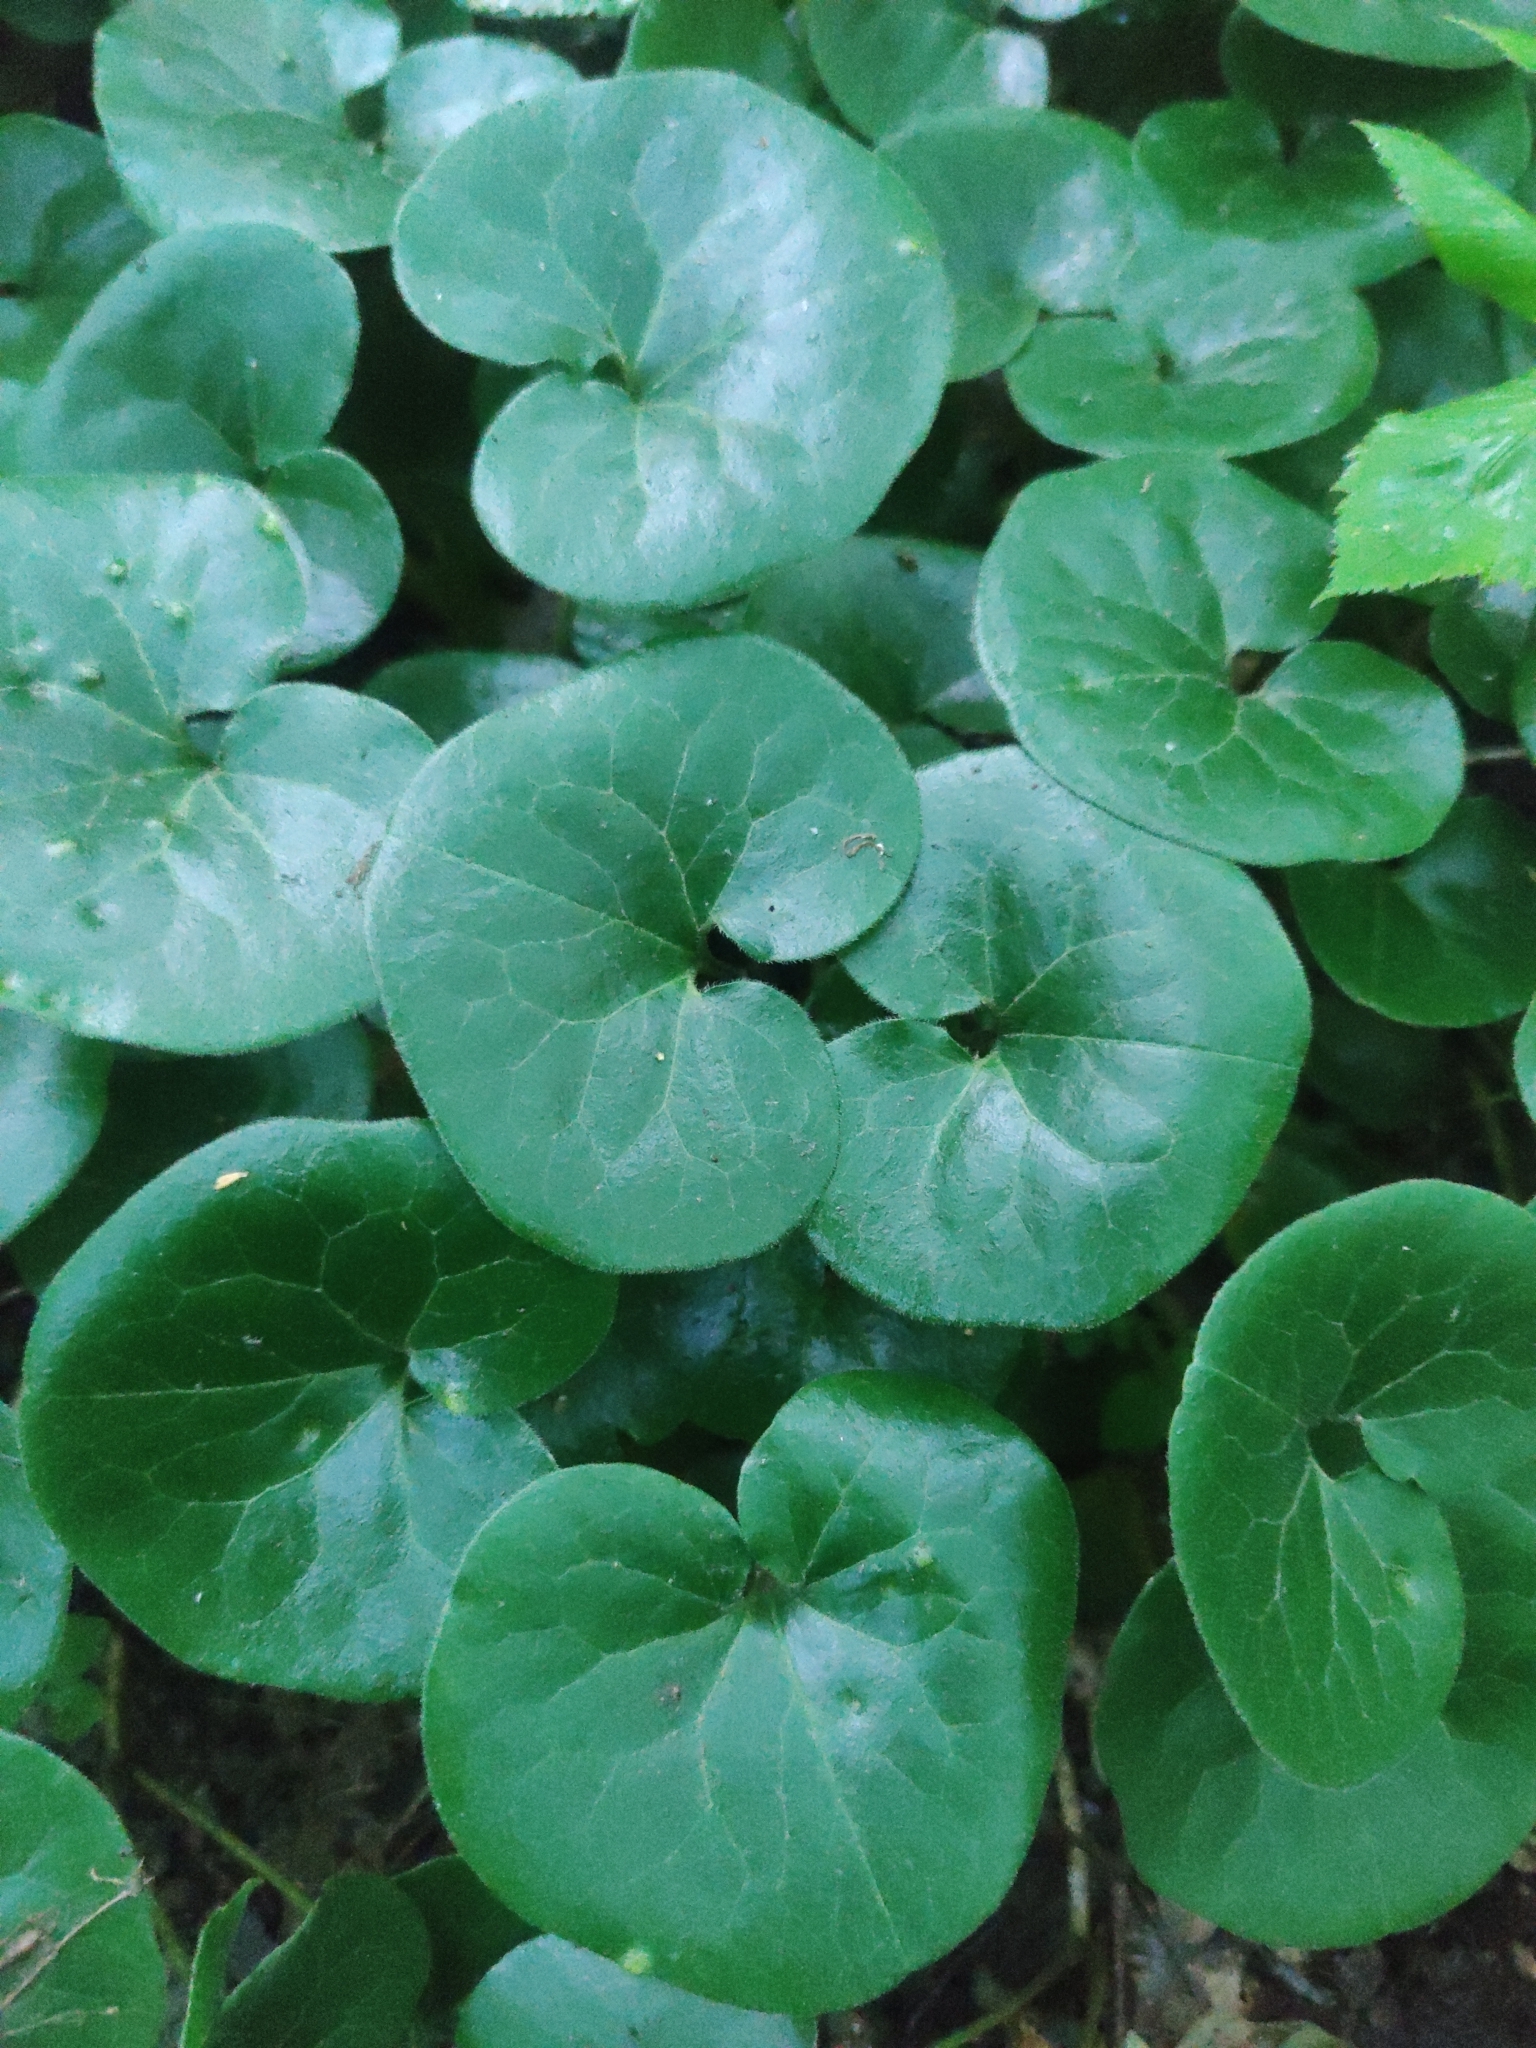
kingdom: Plantae
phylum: Tracheophyta
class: Magnoliopsida
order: Piperales
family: Aristolochiaceae
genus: Asarum
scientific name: Asarum europaeum
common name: Asarabacca
